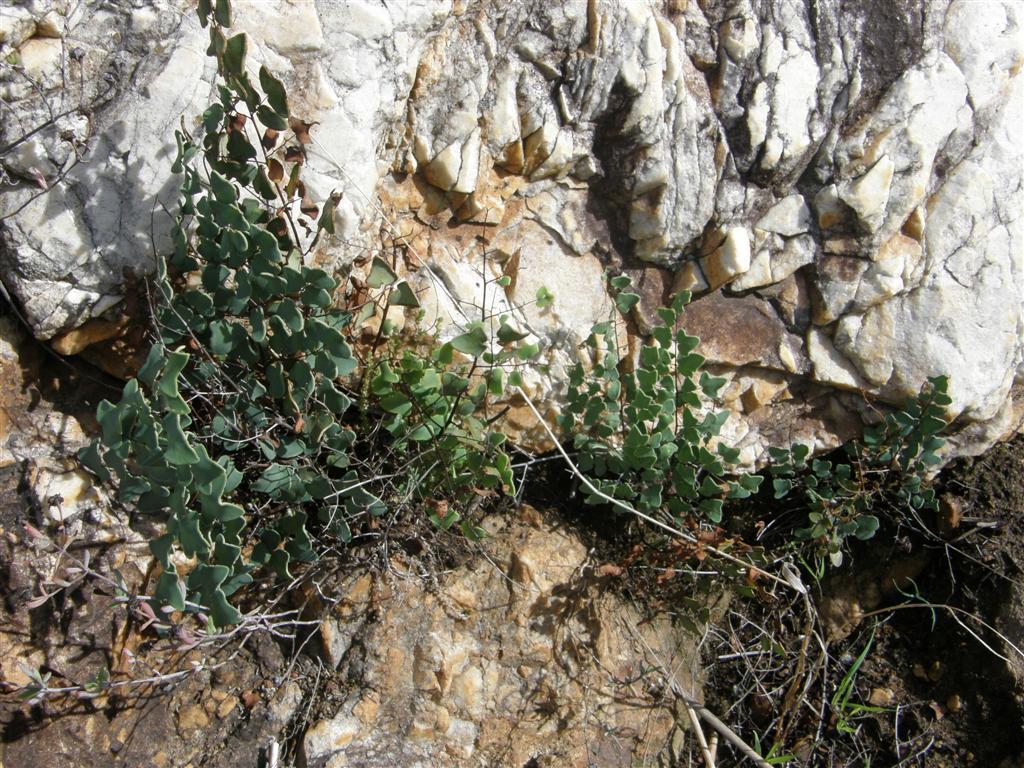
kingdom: Plantae
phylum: Tracheophyta
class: Polypodiopsida
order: Polypodiales
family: Pteridaceae
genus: Pellaea
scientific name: Pellaea calomelanos
